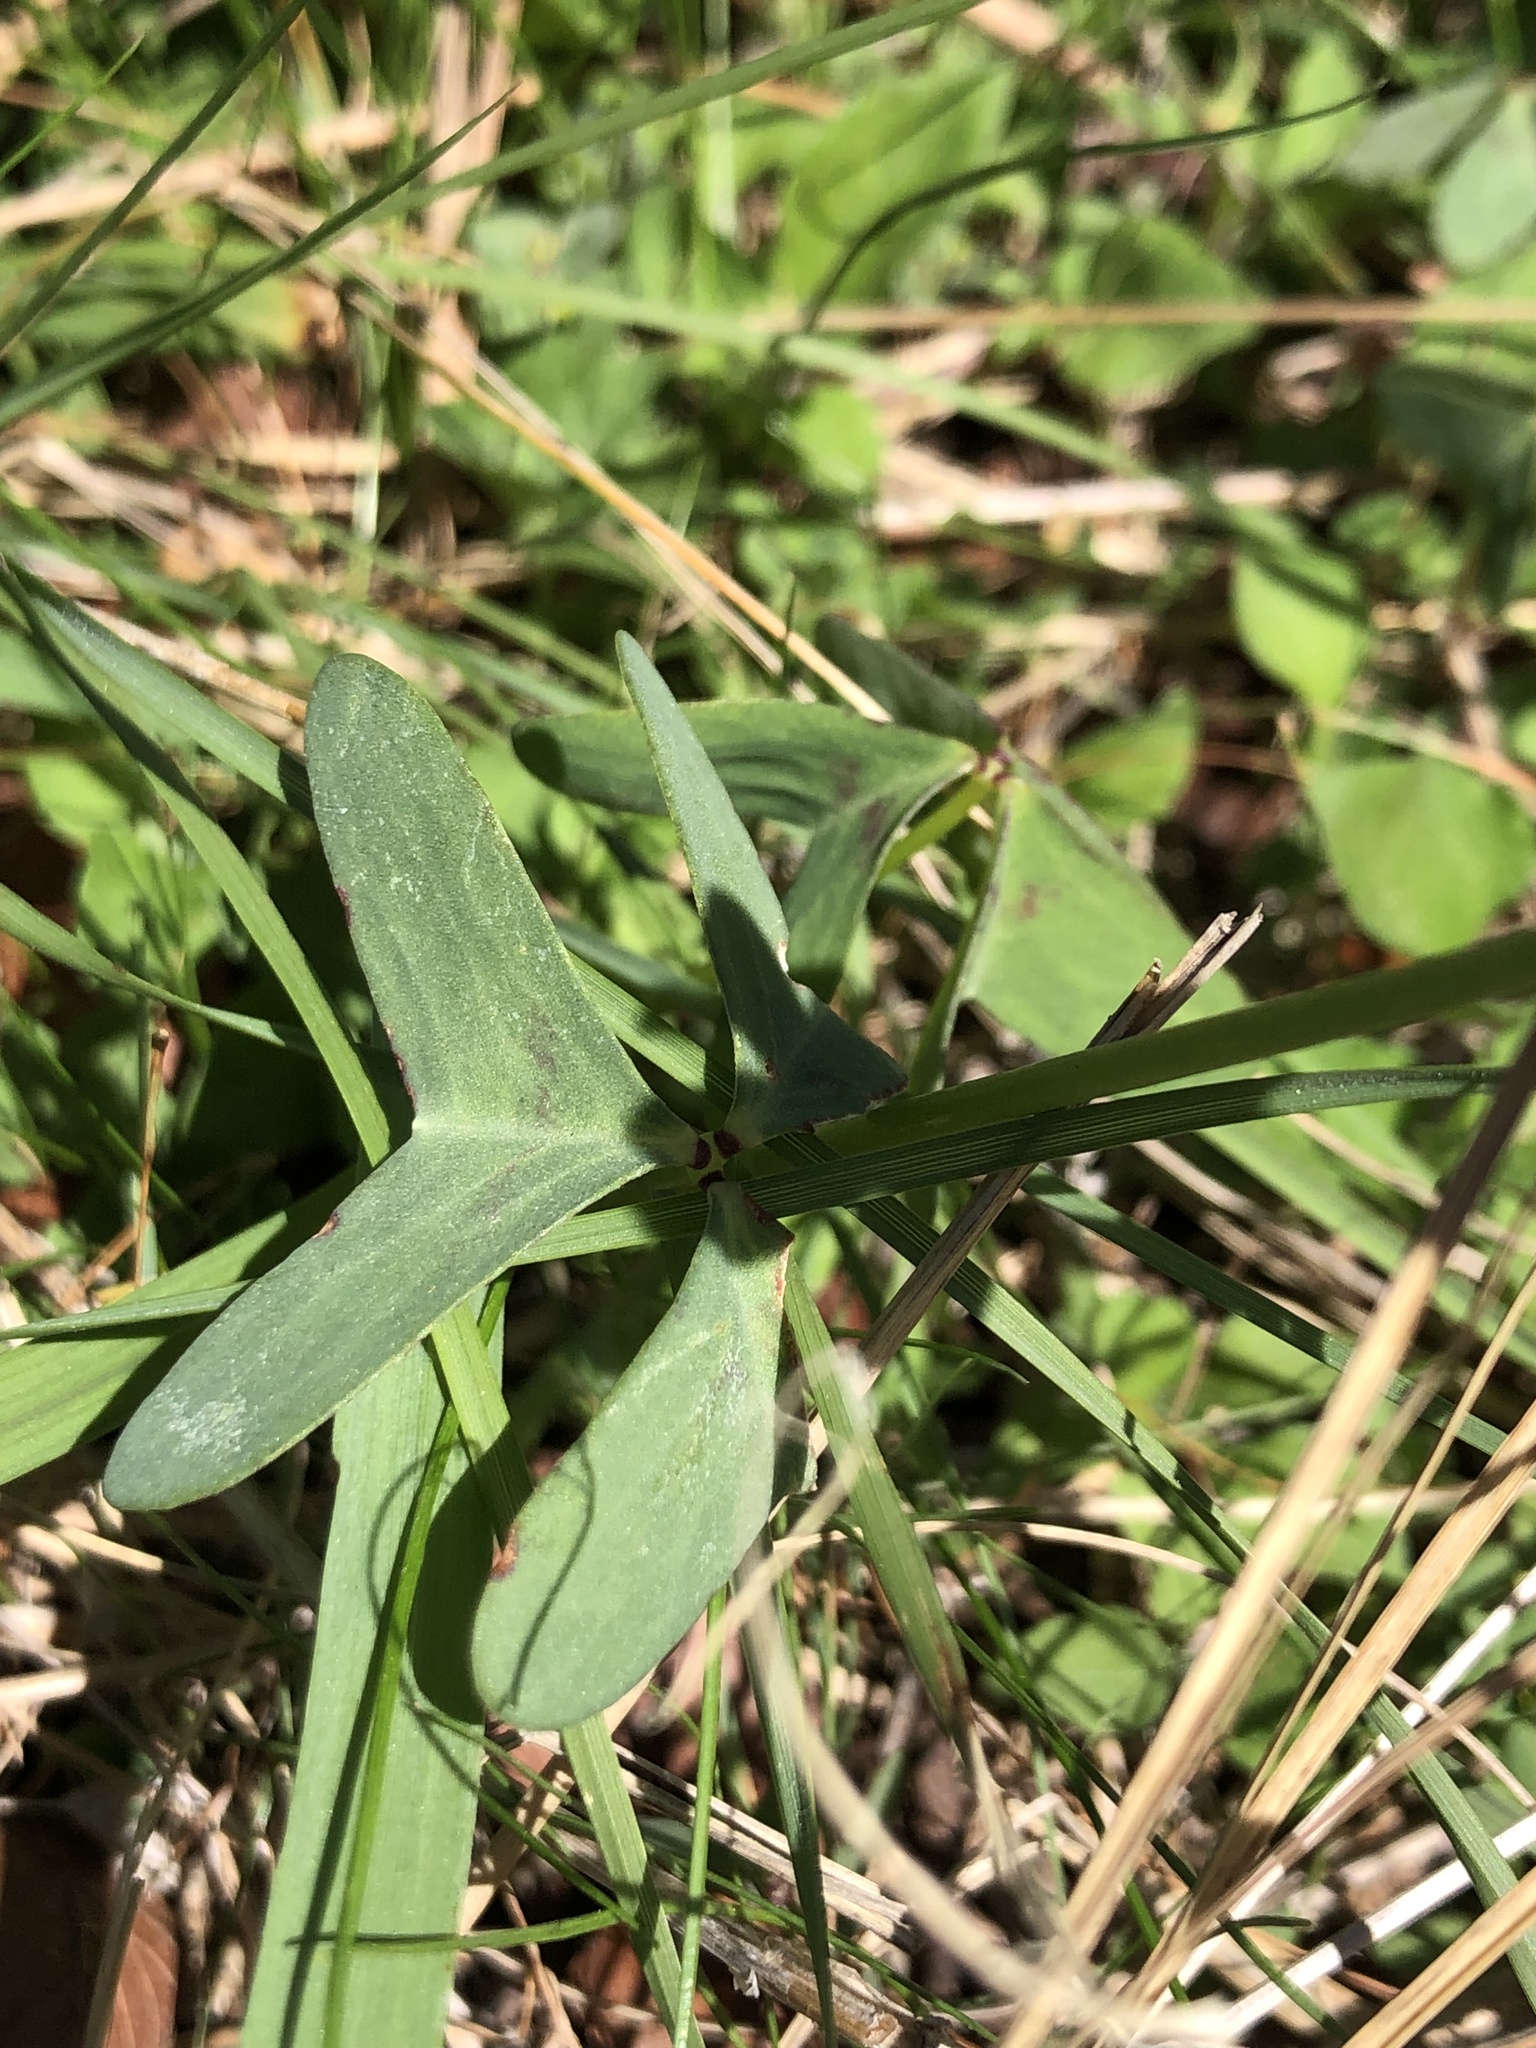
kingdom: Plantae
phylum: Tracheophyta
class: Magnoliopsida
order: Oxalidales
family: Oxalidaceae
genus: Oxalis
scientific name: Oxalis drummondii
